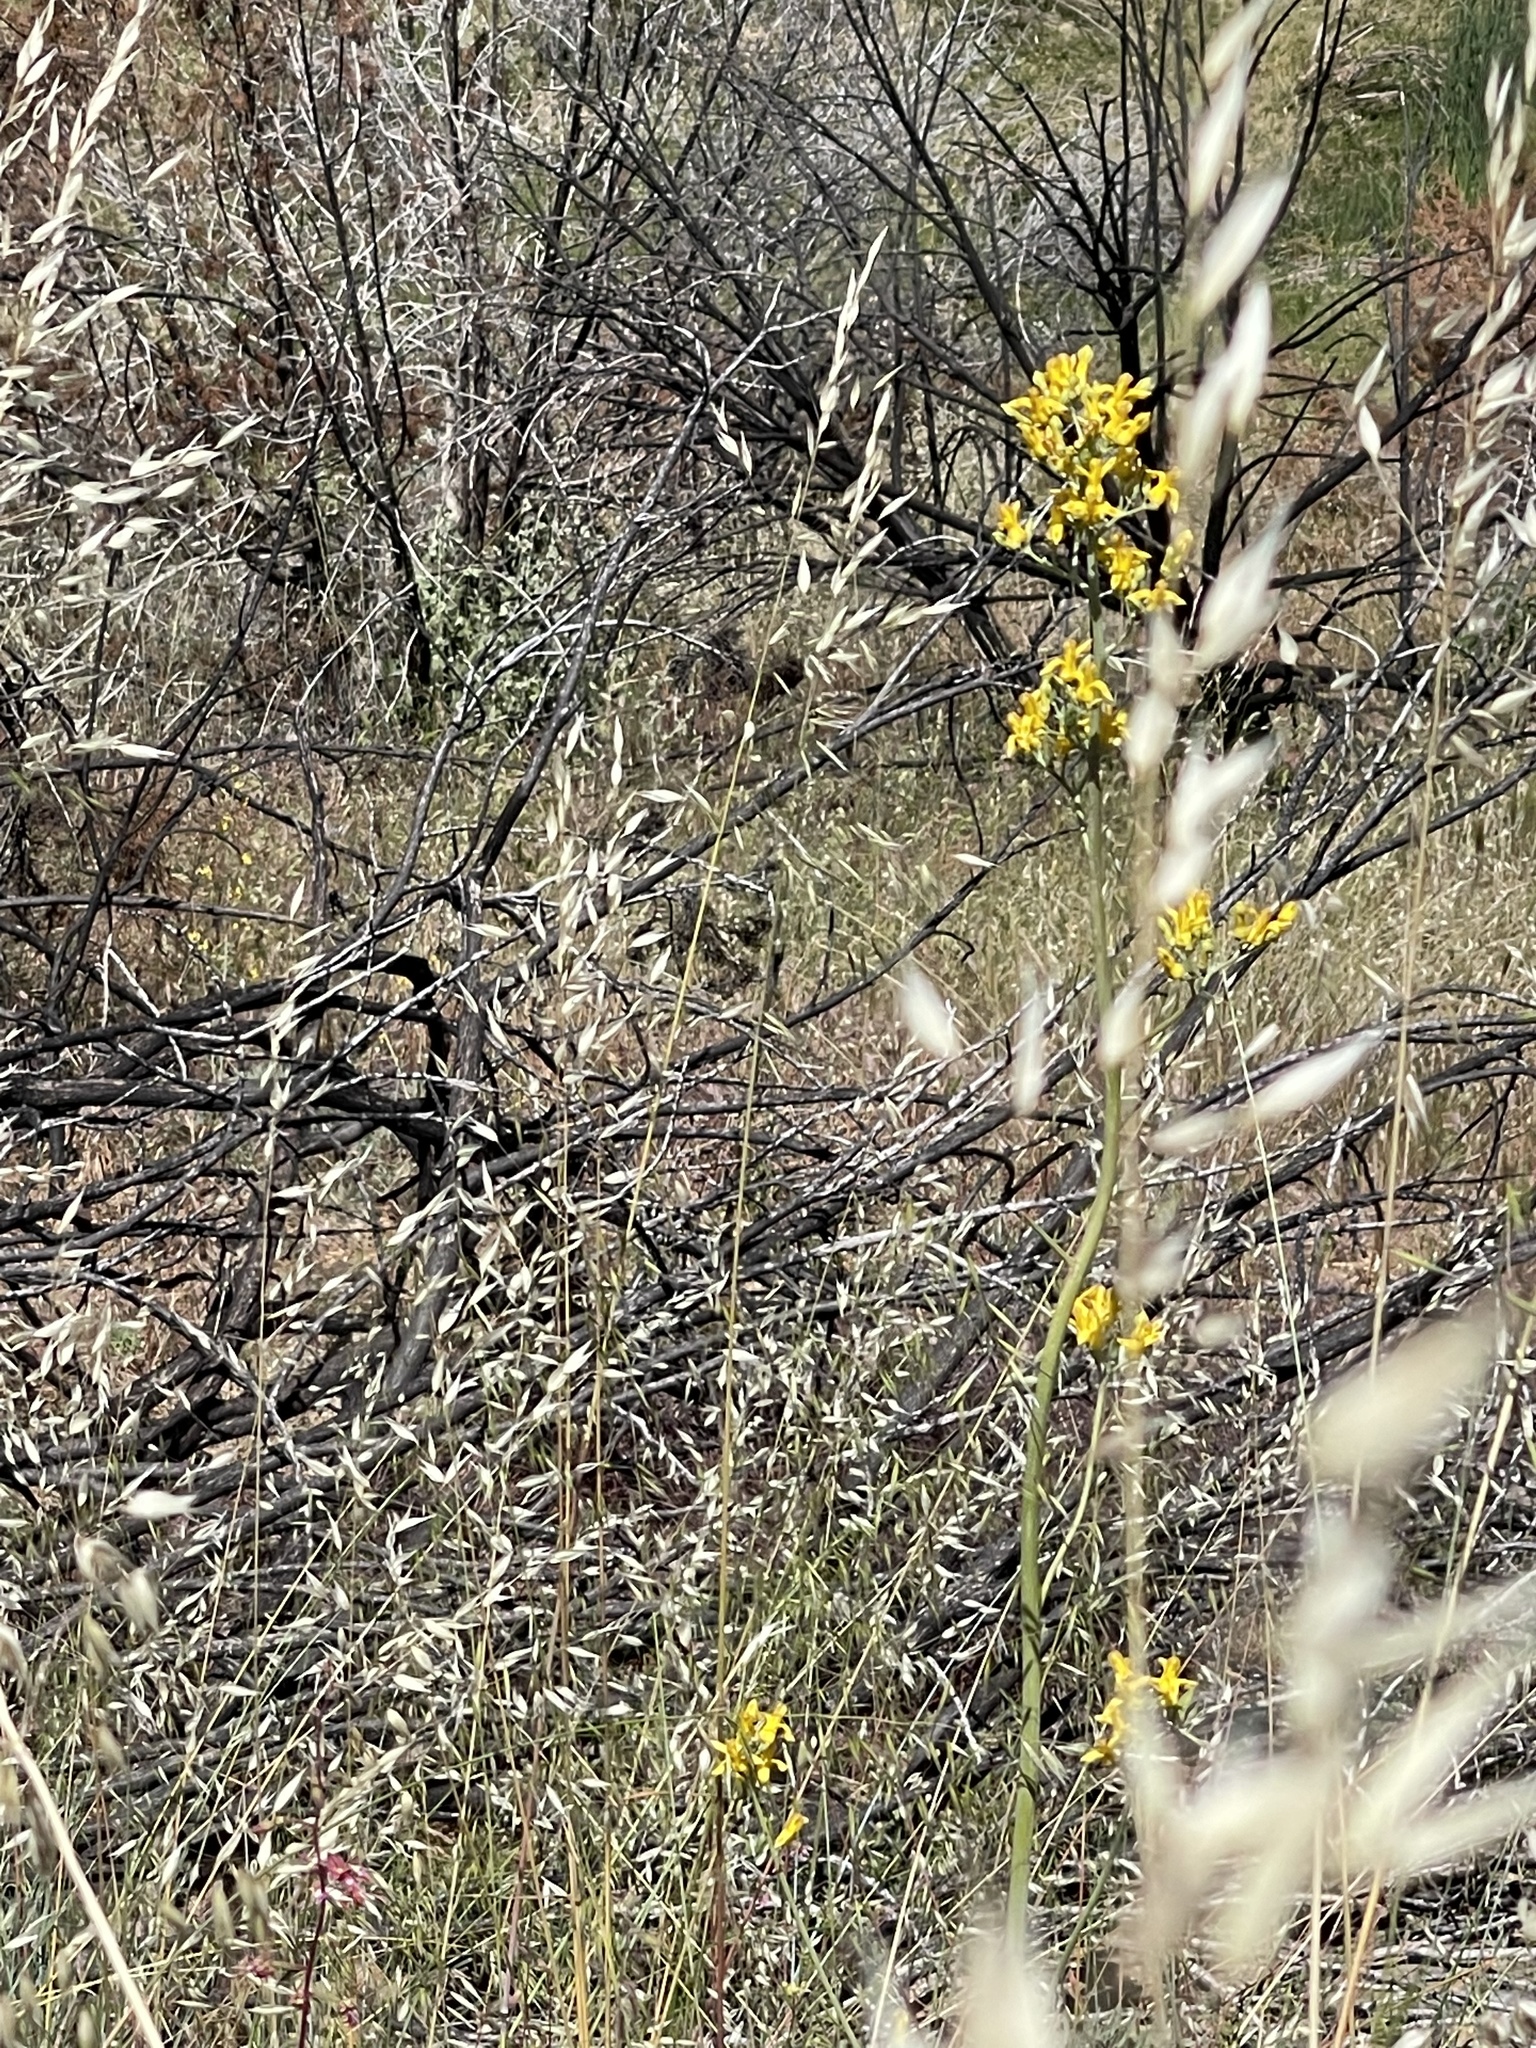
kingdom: Plantae
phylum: Tracheophyta
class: Magnoliopsida
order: Ranunculales
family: Papaveraceae
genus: Ehrendorferia
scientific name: Ehrendorferia chrysantha
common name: Golden eardrops
